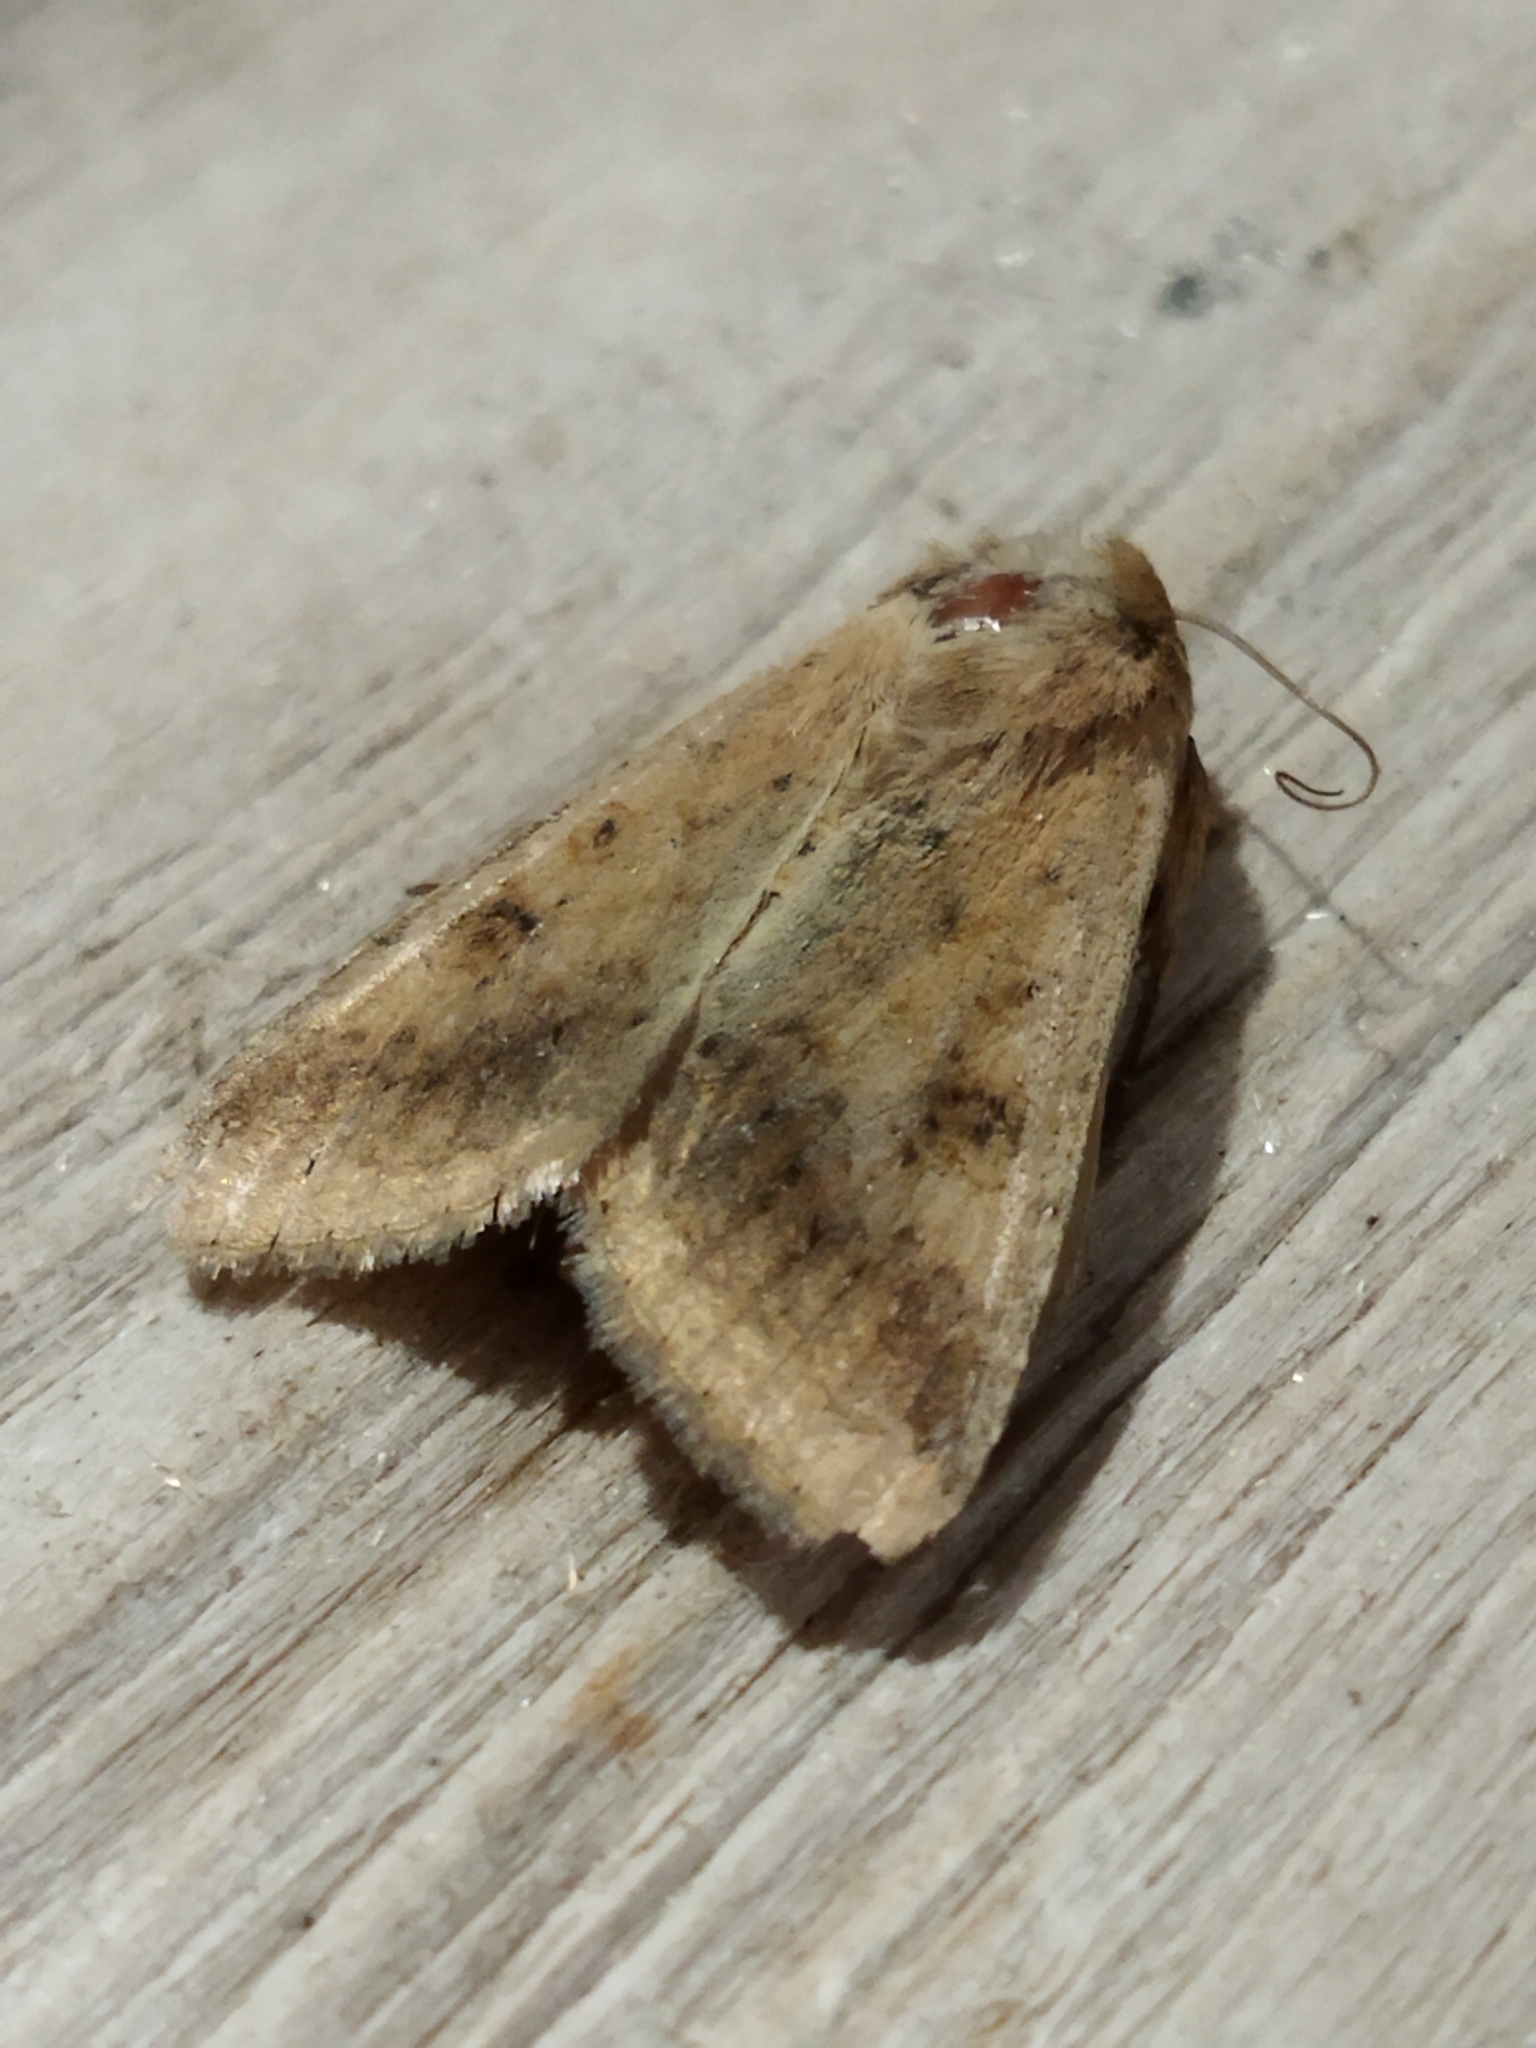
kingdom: Animalia
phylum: Arthropoda
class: Insecta
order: Lepidoptera
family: Noctuidae
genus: Helicoverpa
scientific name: Helicoverpa armigera
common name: Cotton bollworm
